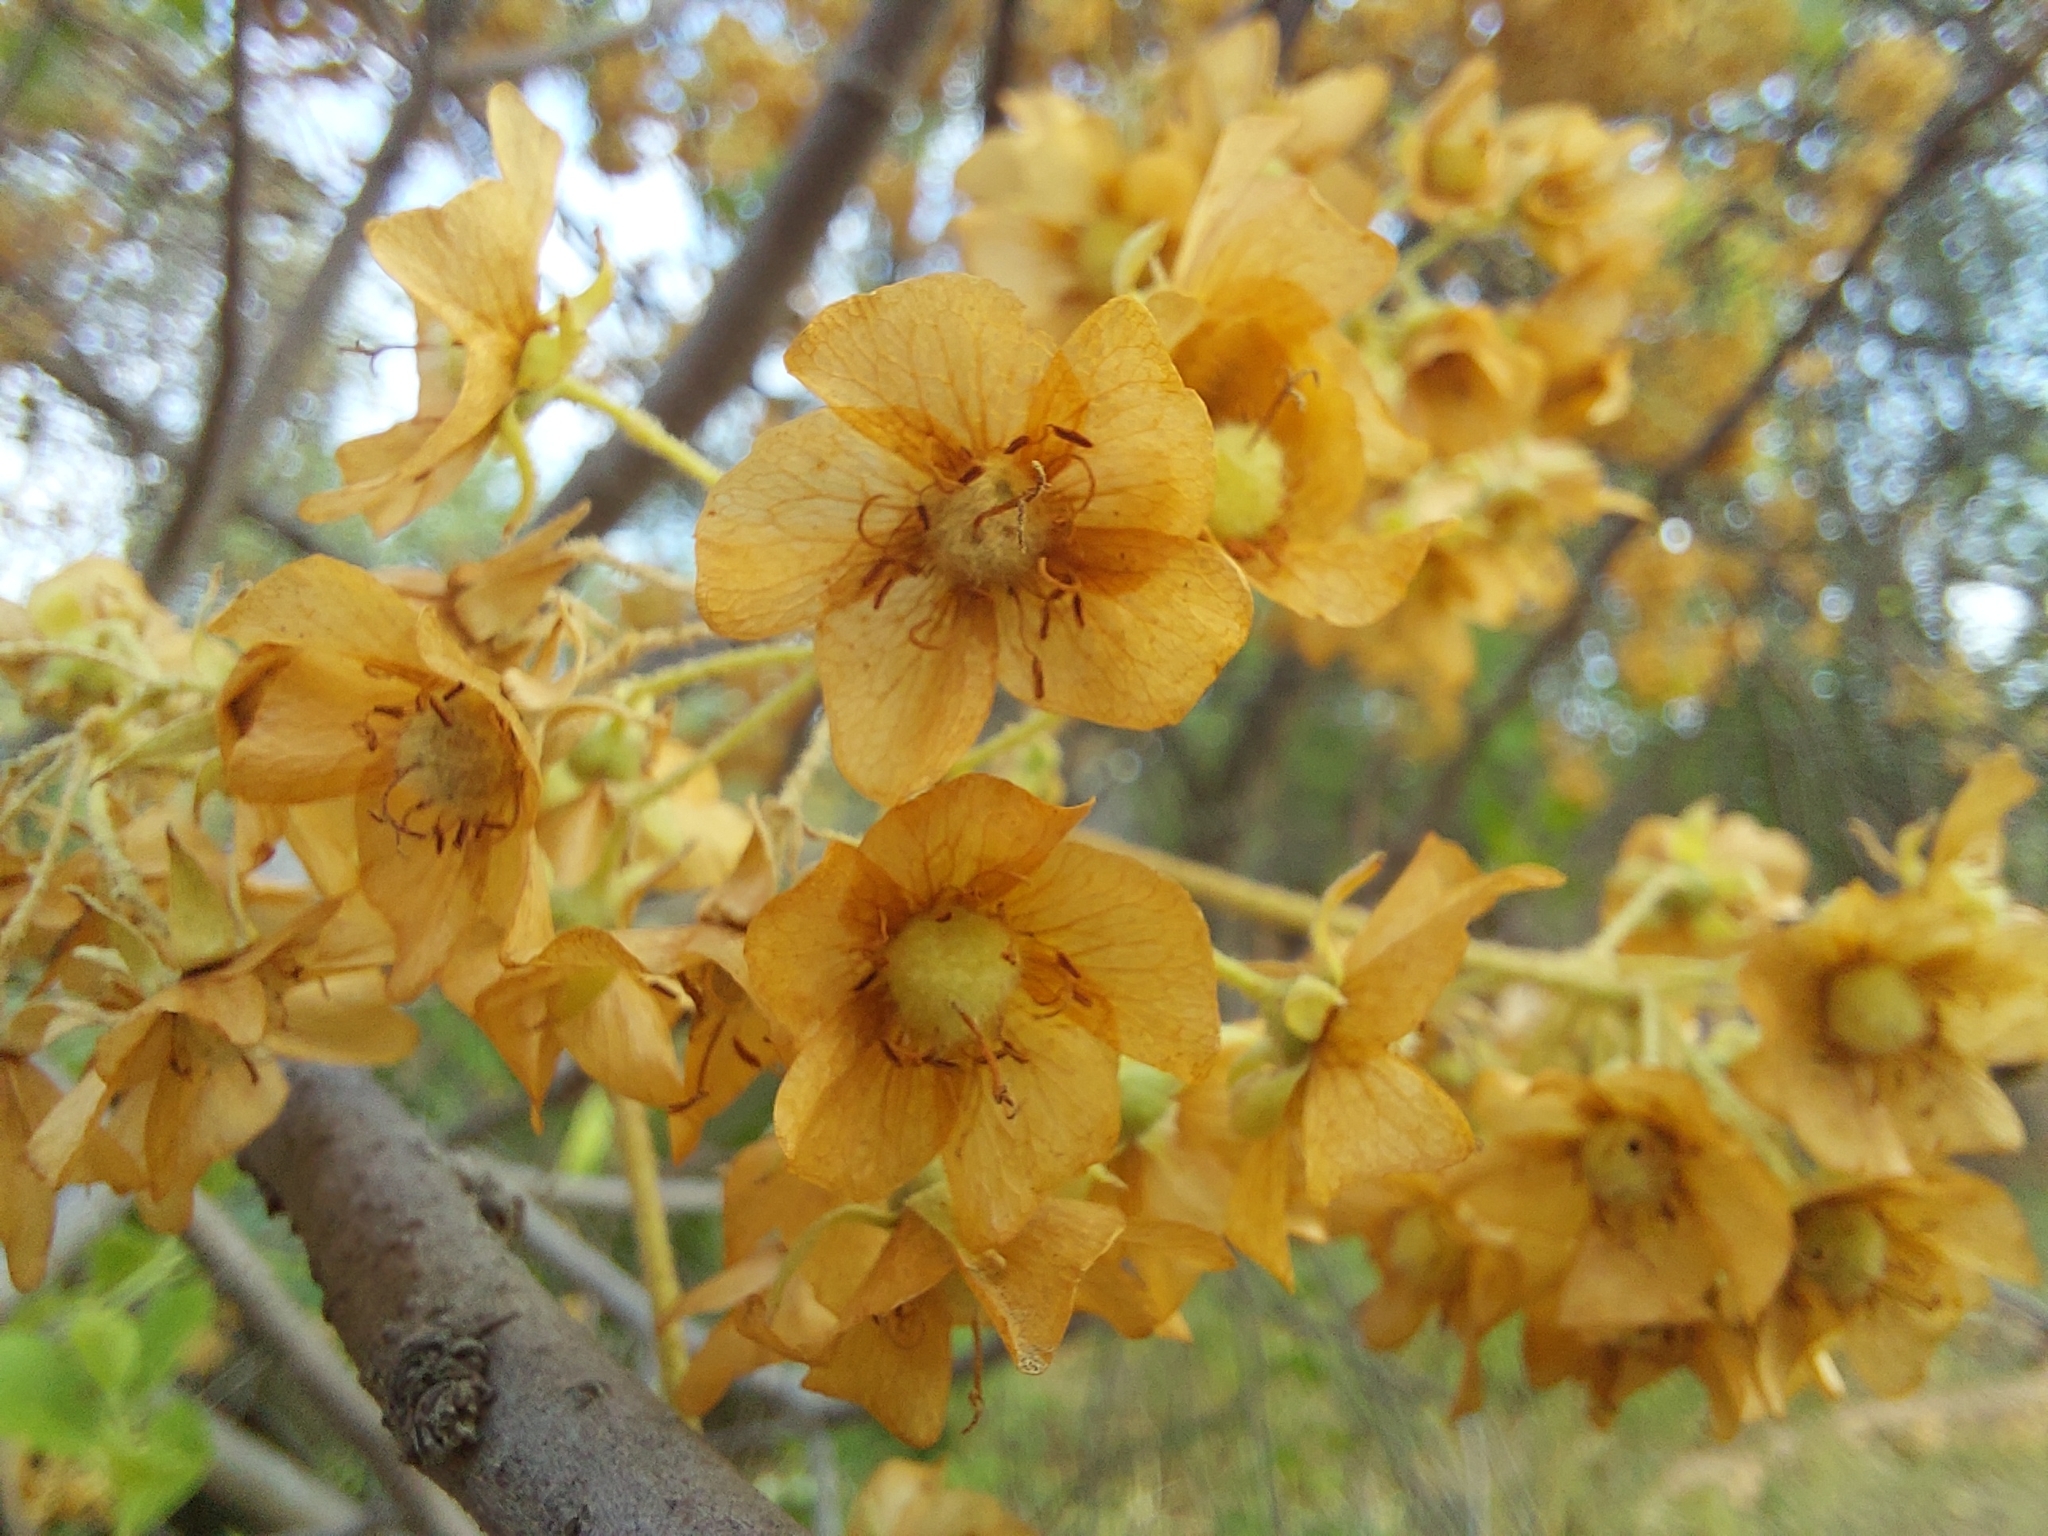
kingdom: Plantae
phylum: Tracheophyta
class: Magnoliopsida
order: Malvales
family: Malvaceae
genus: Dombeya
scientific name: Dombeya rotundifolia
